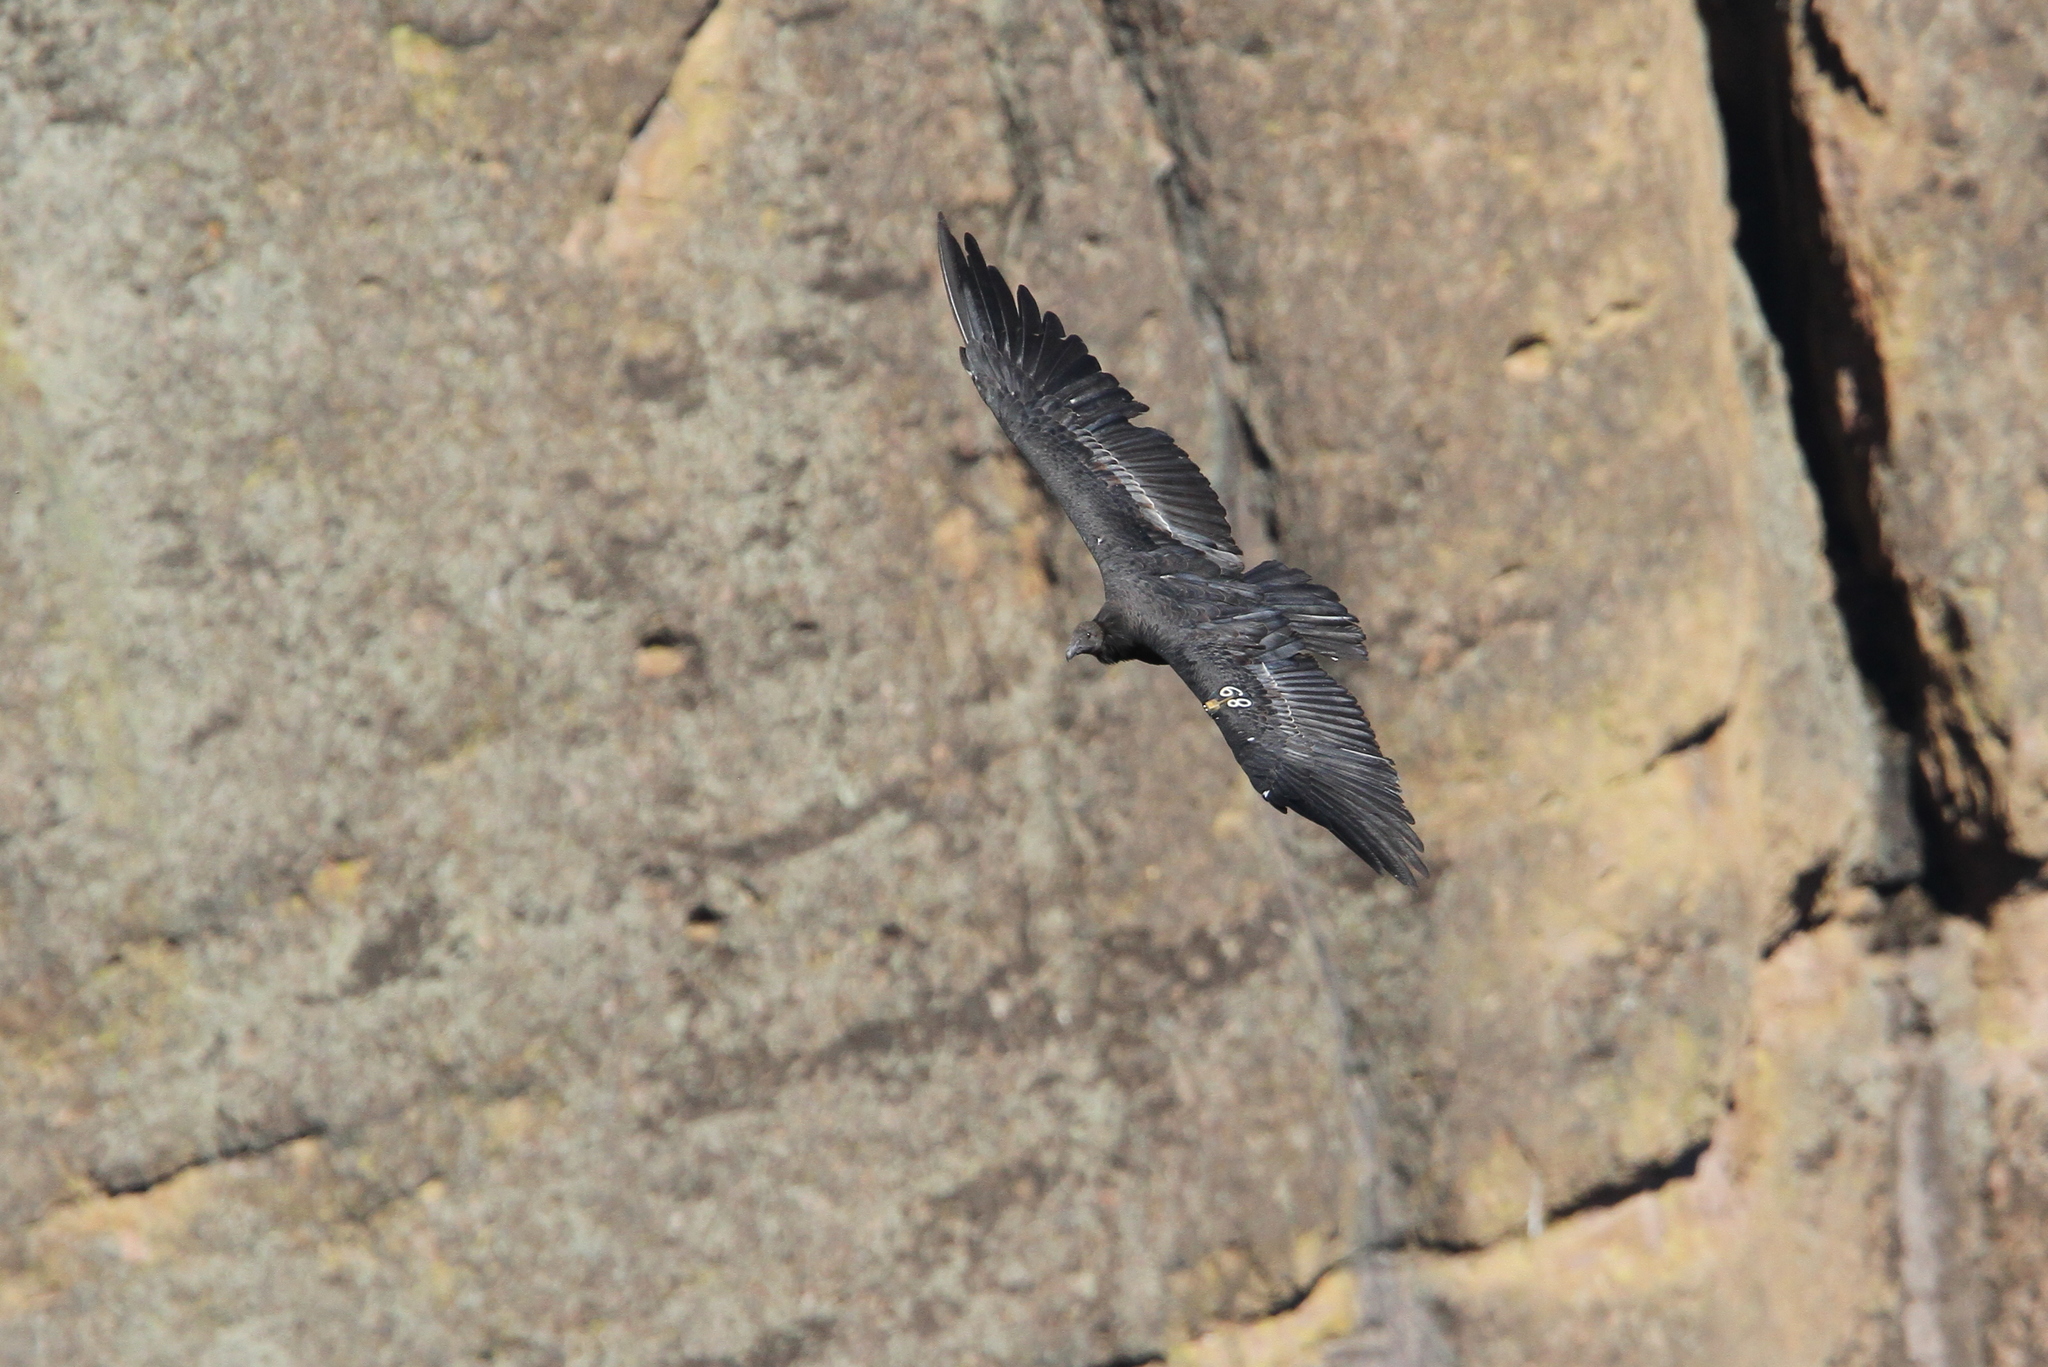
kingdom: Animalia
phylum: Chordata
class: Aves
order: Accipitriformes
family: Cathartidae
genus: Gymnogyps
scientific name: Gymnogyps californianus
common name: California condor
